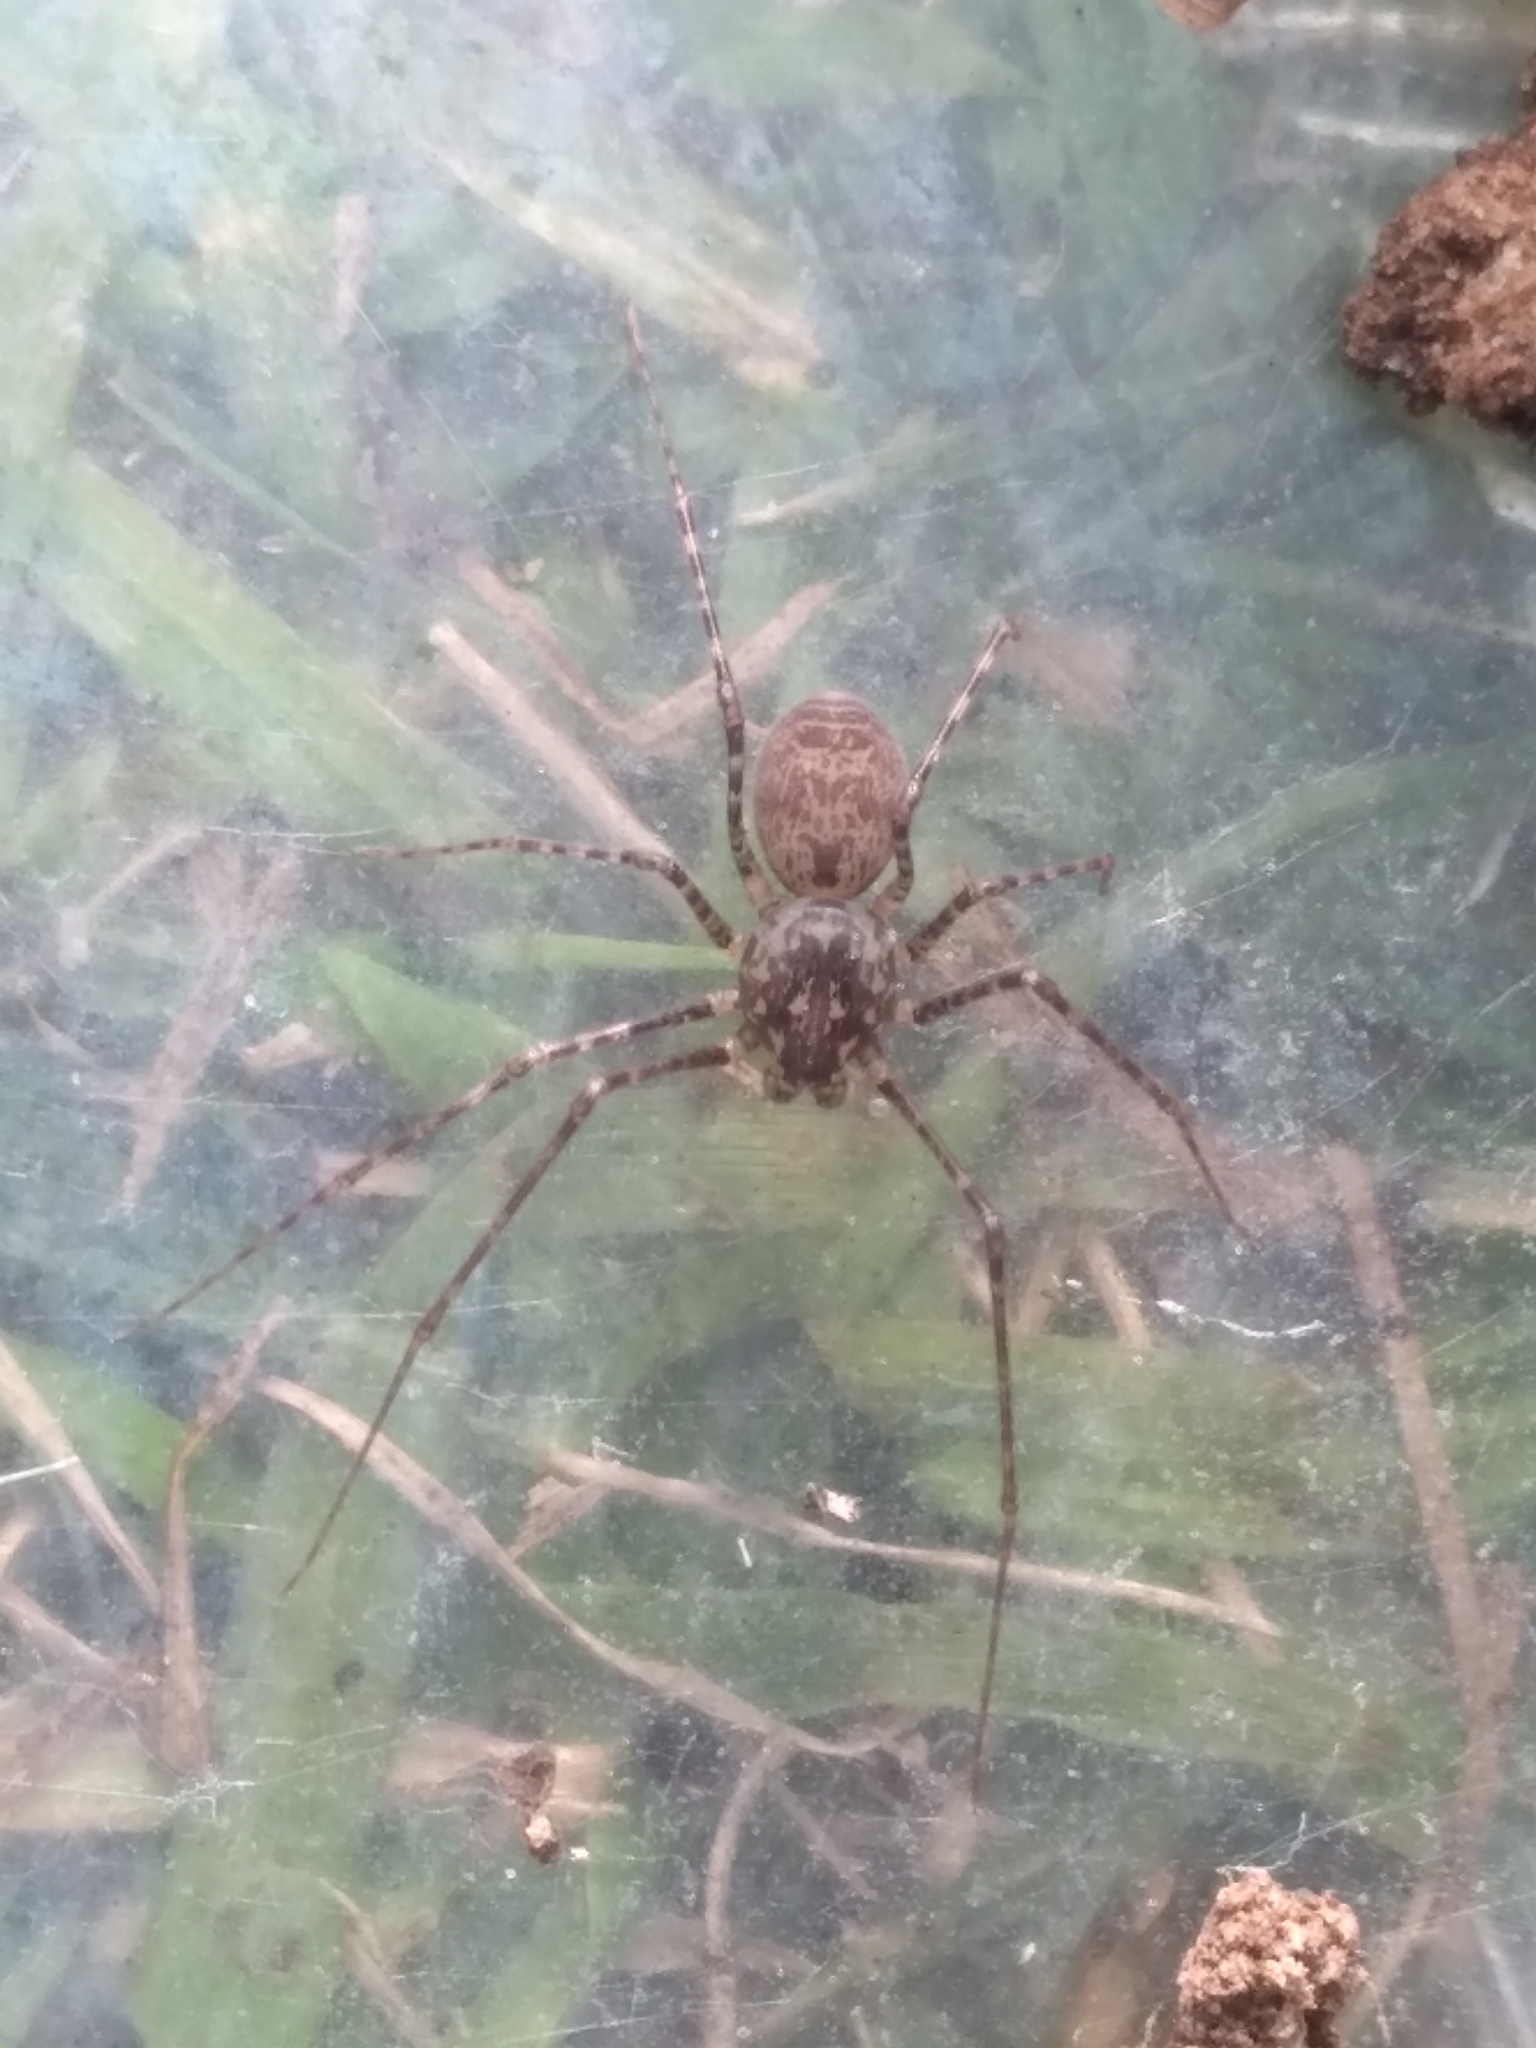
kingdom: Animalia
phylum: Arthropoda
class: Arachnida
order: Araneae
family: Scytodidae
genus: Scytodes
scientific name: Scytodes globula
